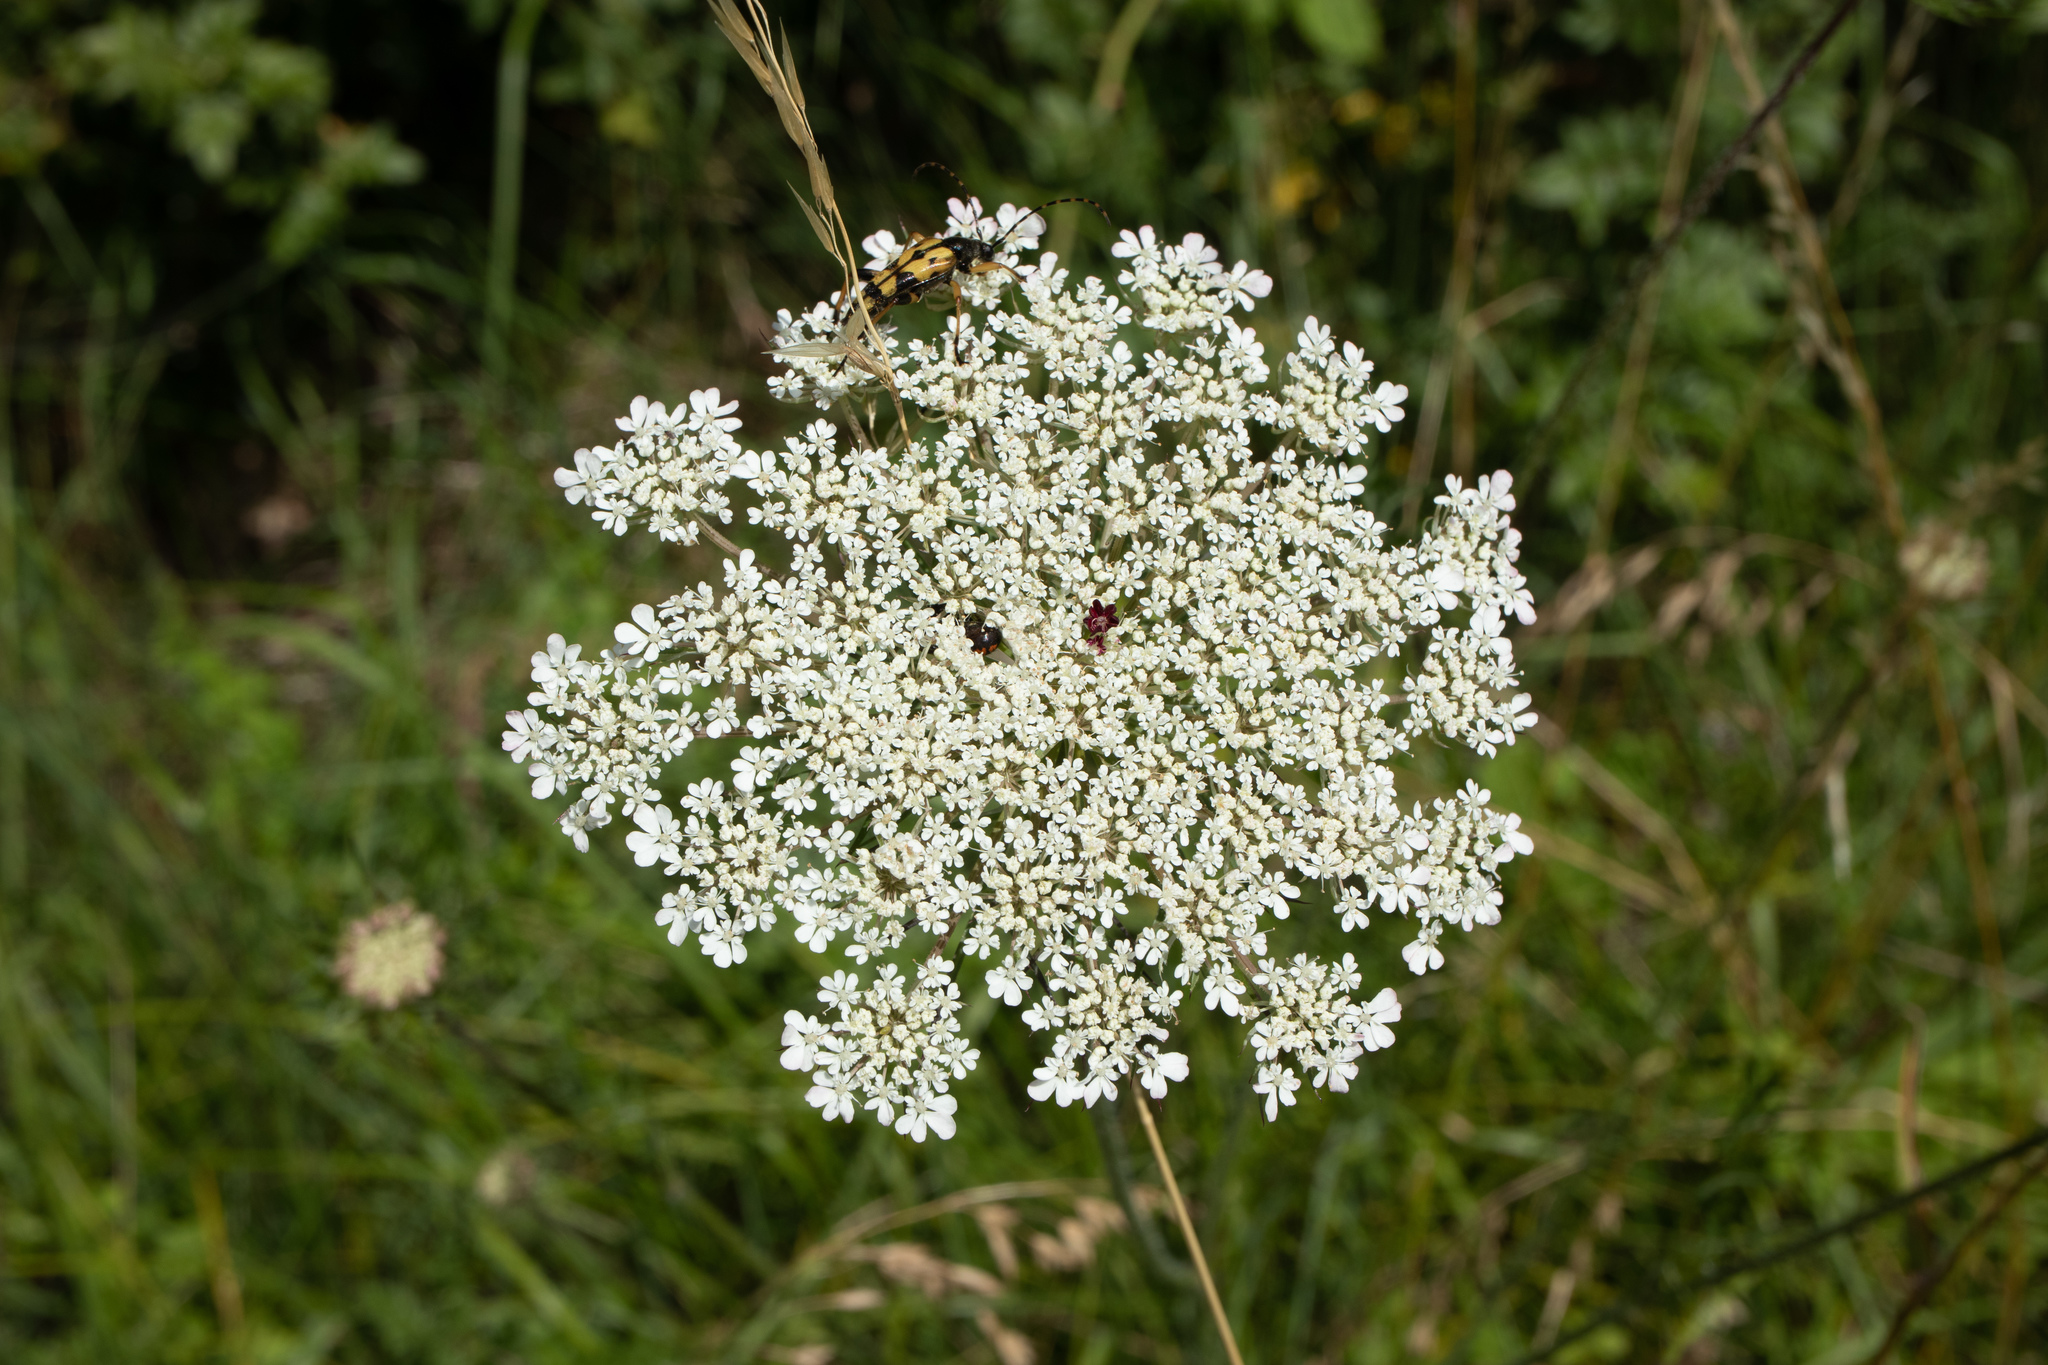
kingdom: Plantae
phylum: Tracheophyta
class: Magnoliopsida
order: Apiales
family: Apiaceae
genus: Daucus
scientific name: Daucus carota
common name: Wild carrot
